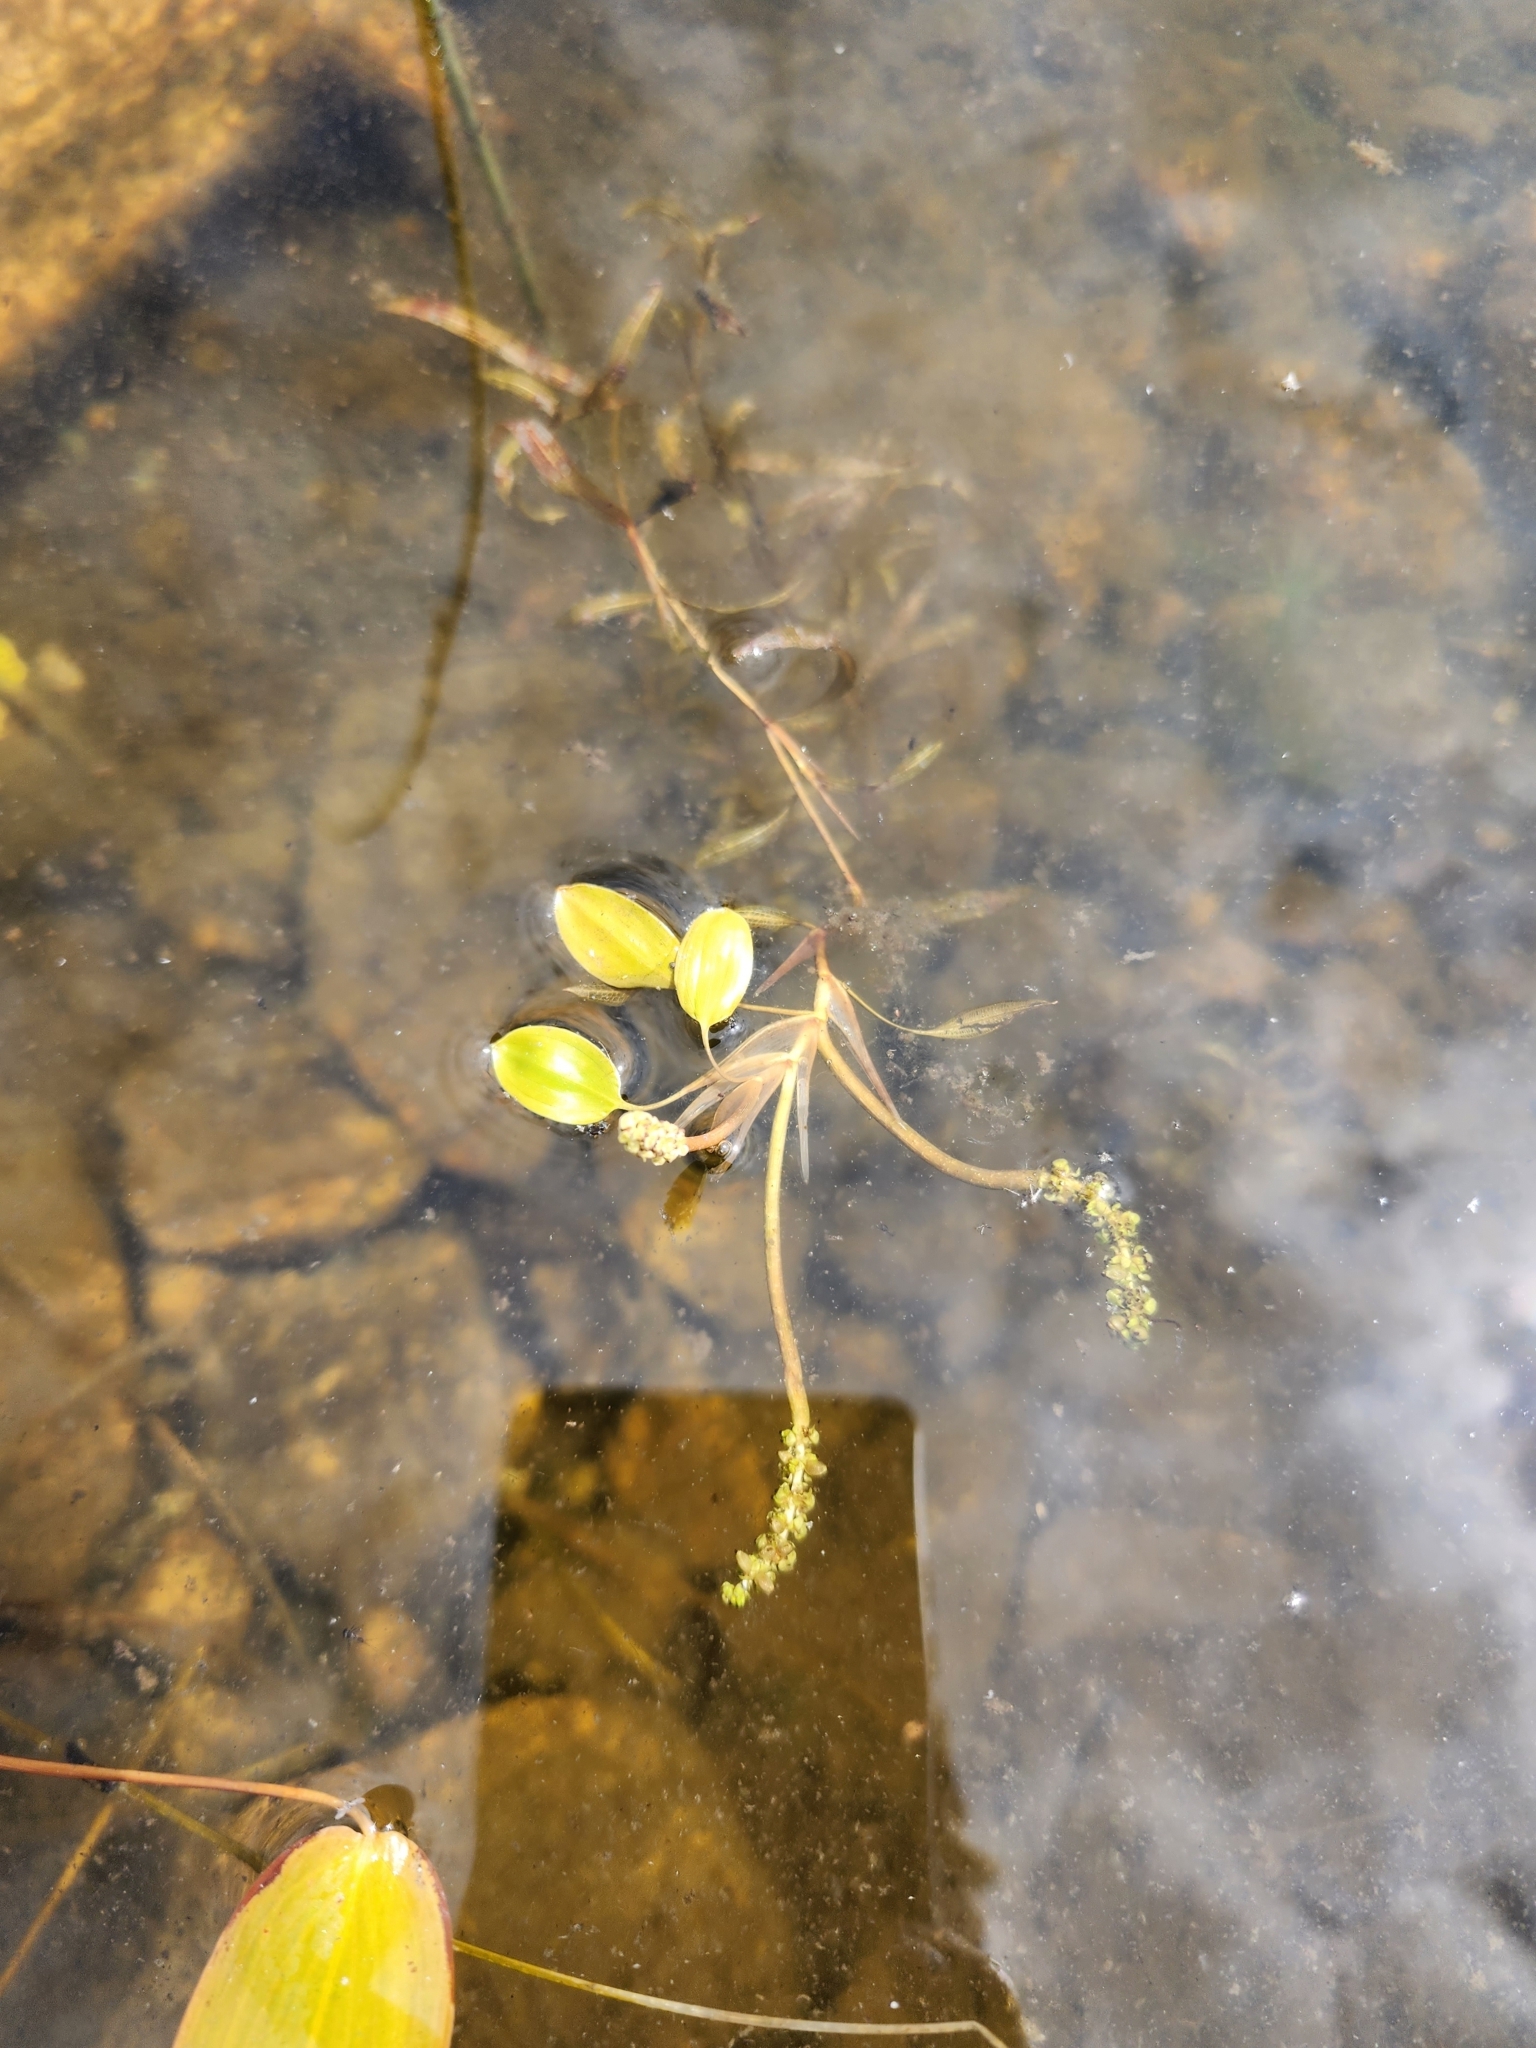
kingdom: Plantae
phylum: Tracheophyta
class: Liliopsida
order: Alismatales
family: Potamogetonaceae
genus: Potamogeton
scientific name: Potamogeton gramineus
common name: Various-leaved pondweed
